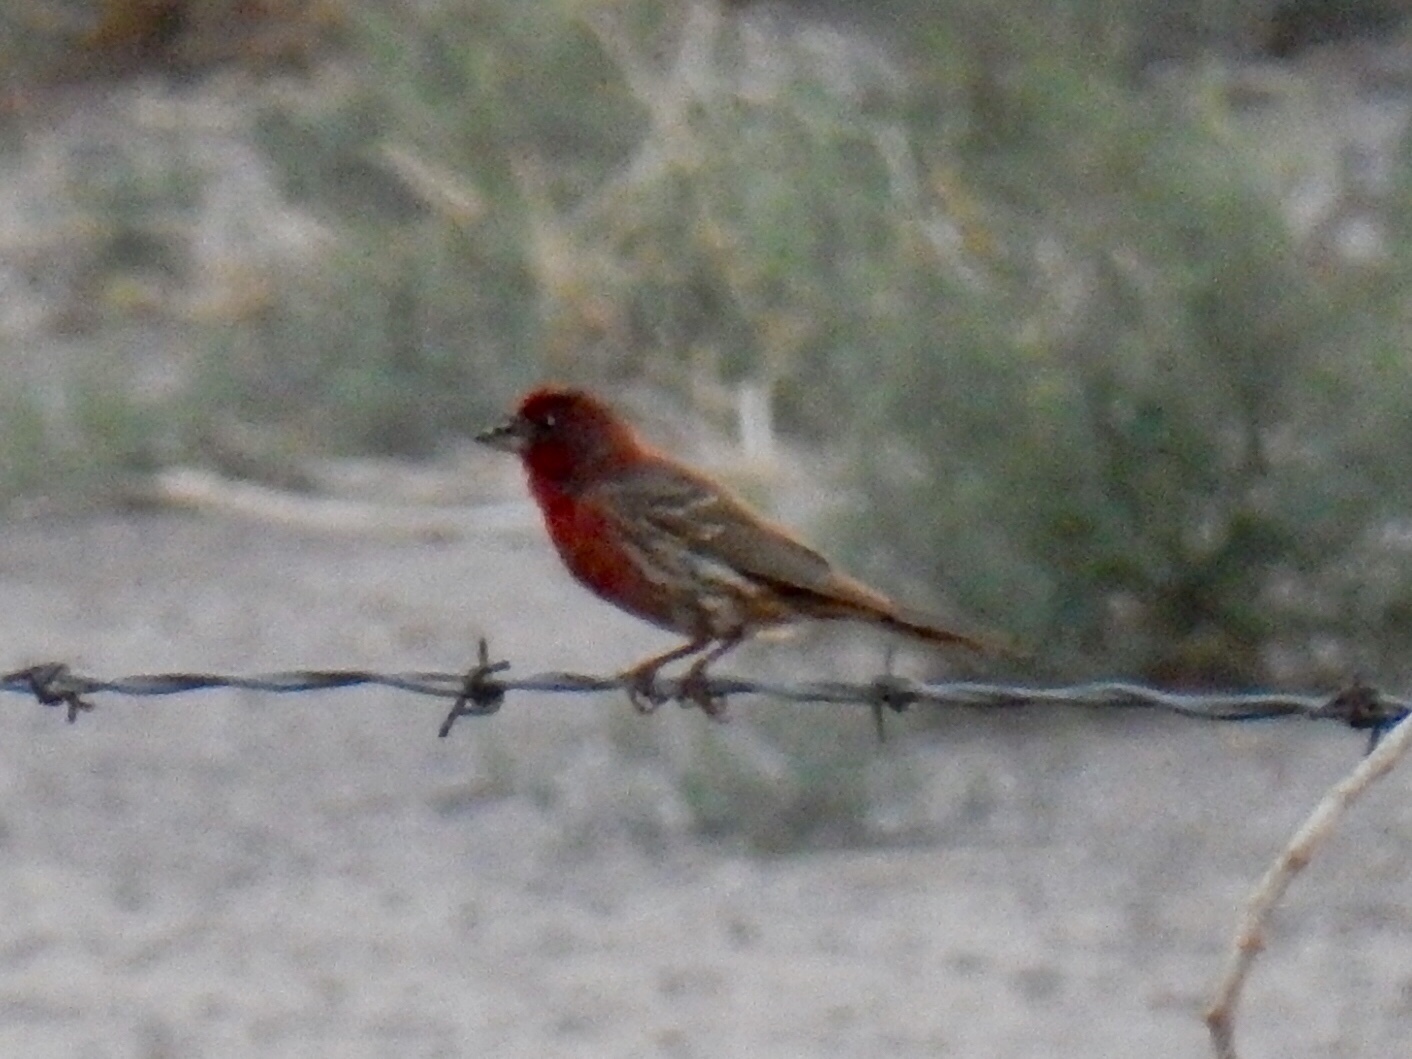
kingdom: Animalia
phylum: Chordata
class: Aves
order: Passeriformes
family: Fringillidae
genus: Haemorhous
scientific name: Haemorhous mexicanus
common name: House finch
